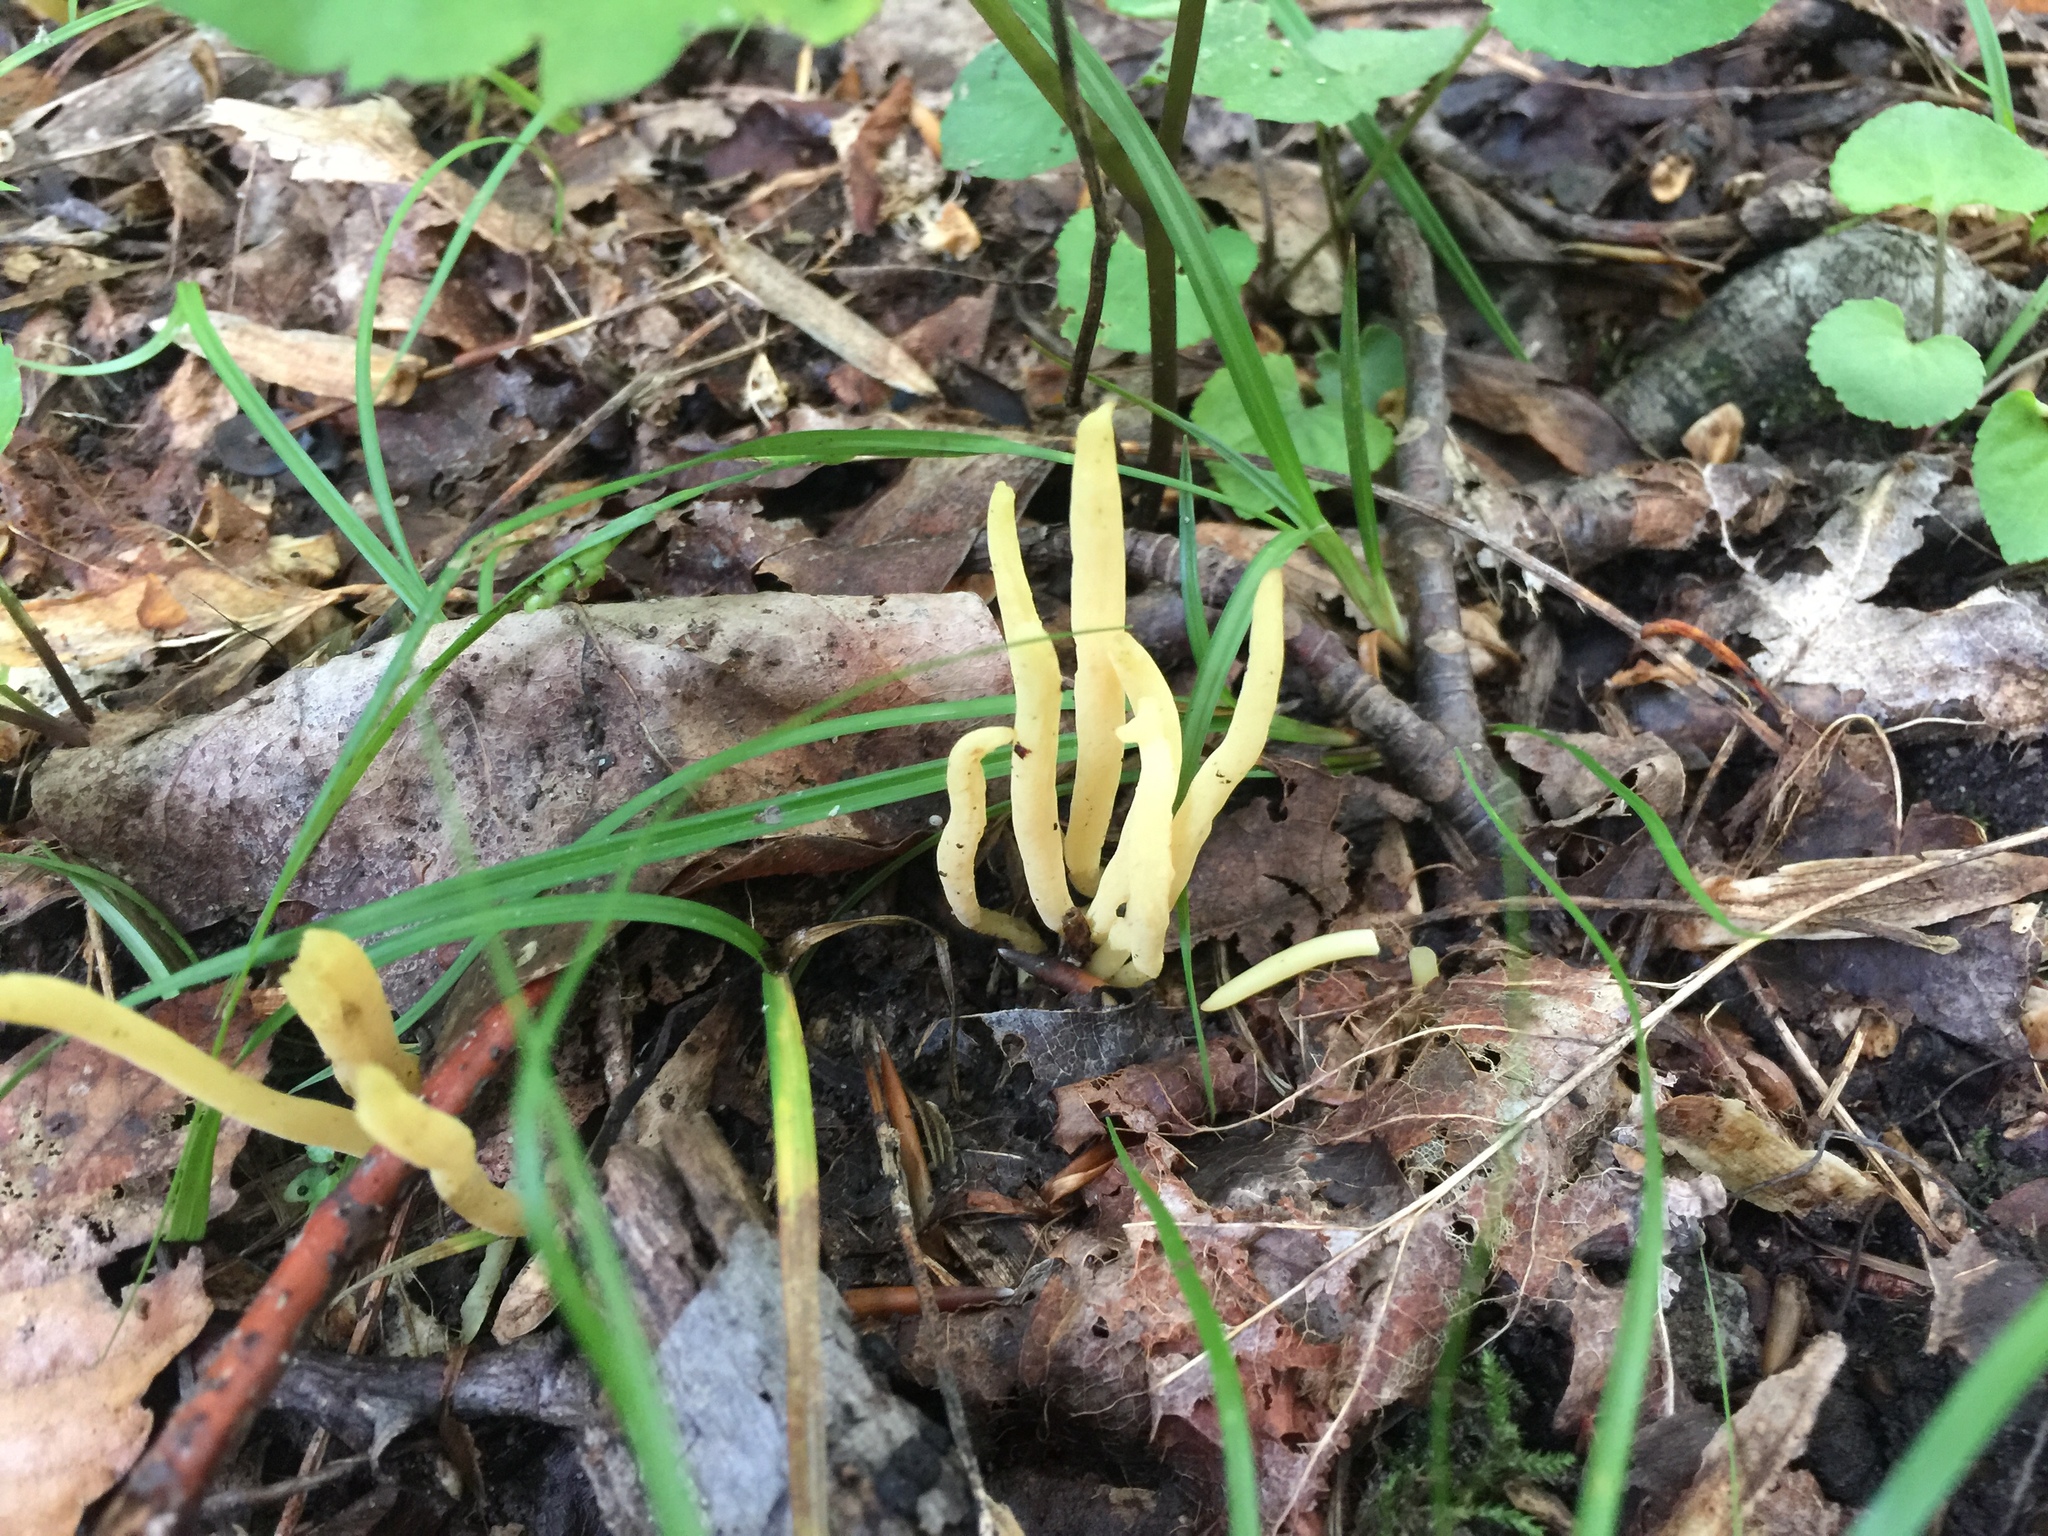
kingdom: Fungi
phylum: Basidiomycota
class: Agaricomycetes
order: Agaricales
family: Clavariaceae
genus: Clavulinopsis
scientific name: Clavulinopsis fusiformis
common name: Golden spindles
